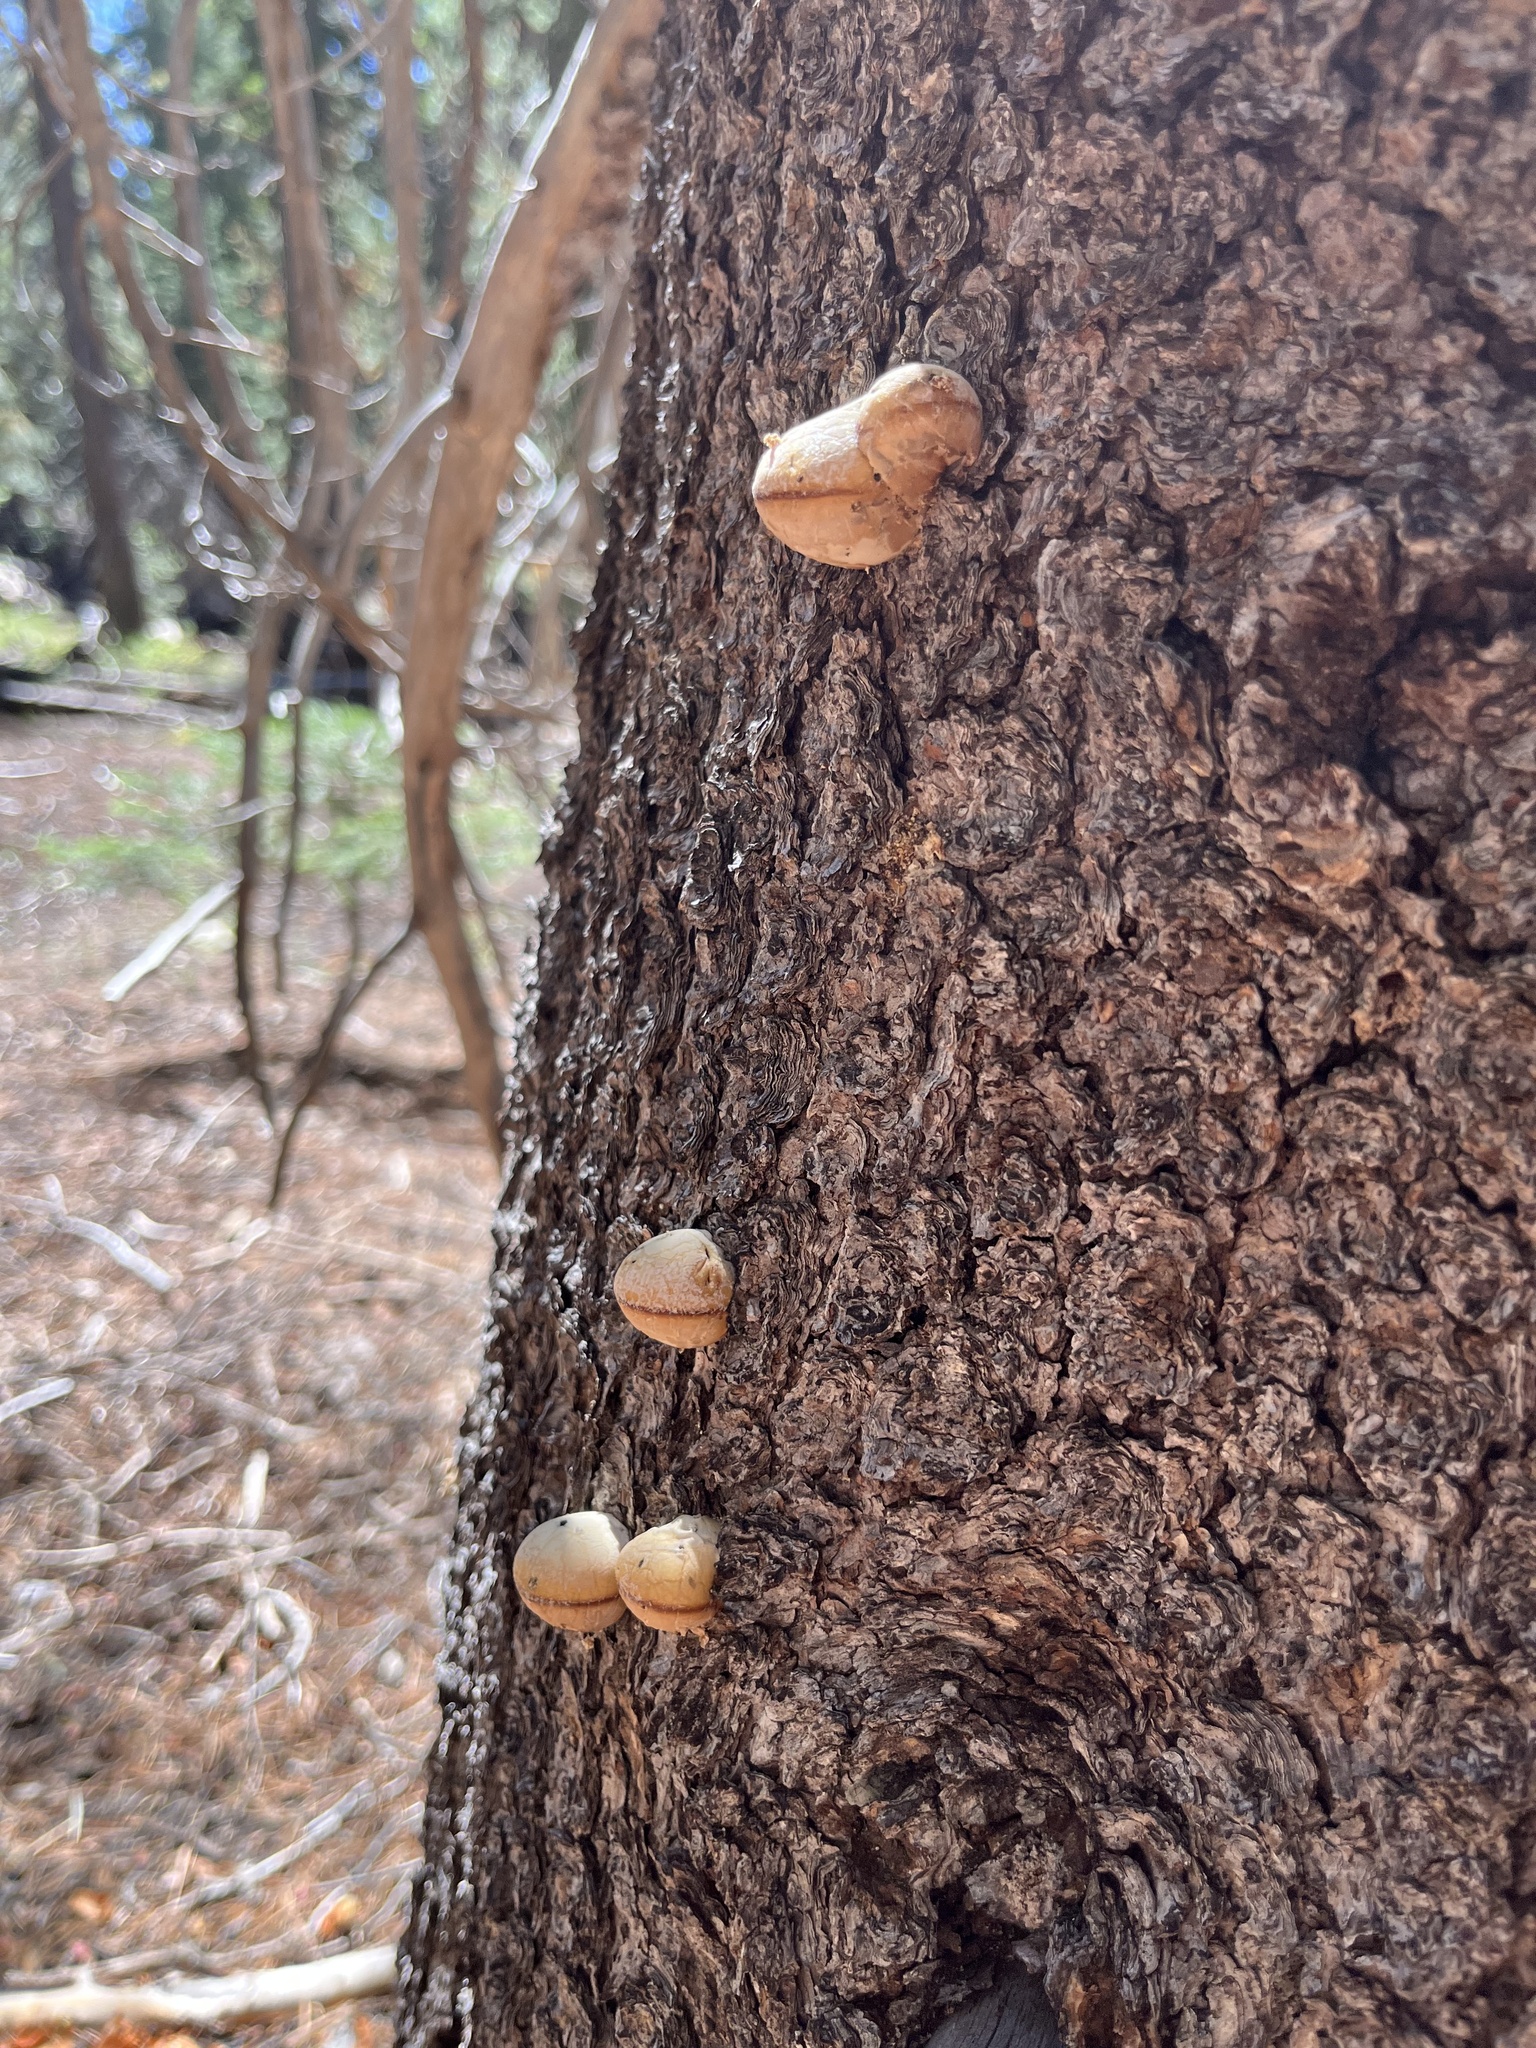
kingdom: Fungi
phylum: Basidiomycota
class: Agaricomycetes
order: Polyporales
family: Polyporaceae
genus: Cryptoporus
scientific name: Cryptoporus volvatus
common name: Veiled polypore
